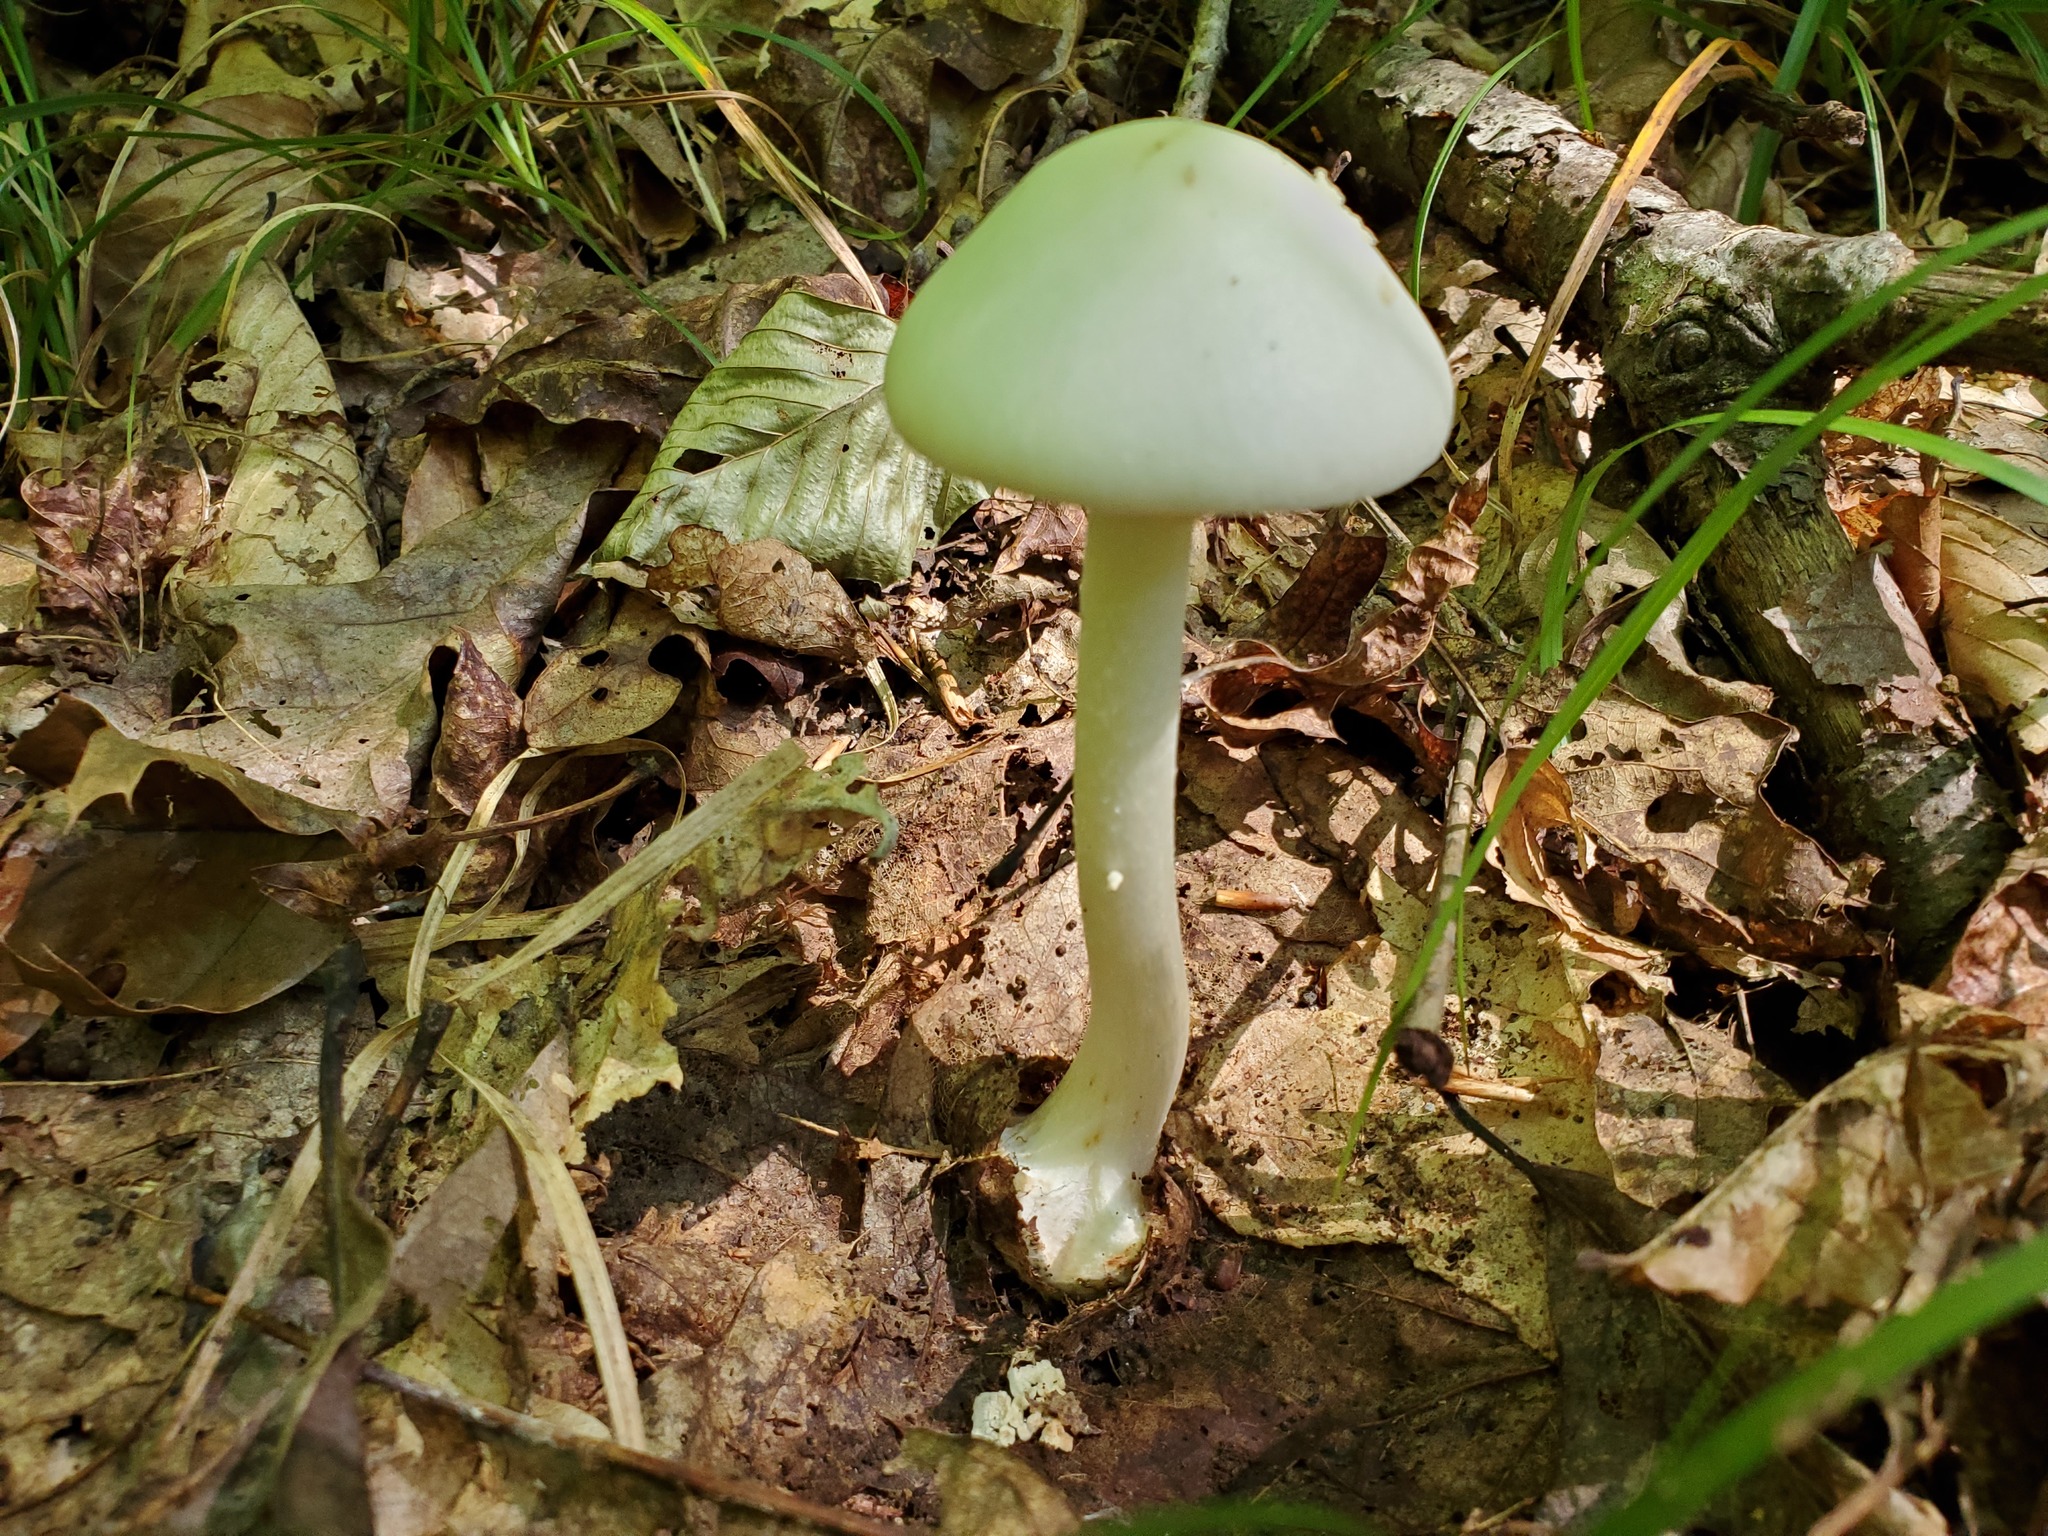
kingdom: Fungi
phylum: Basidiomycota
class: Agaricomycetes
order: Agaricales
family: Amanitaceae
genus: Amanita
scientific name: Amanita brunnescens
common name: Brown american star-footed amanita
